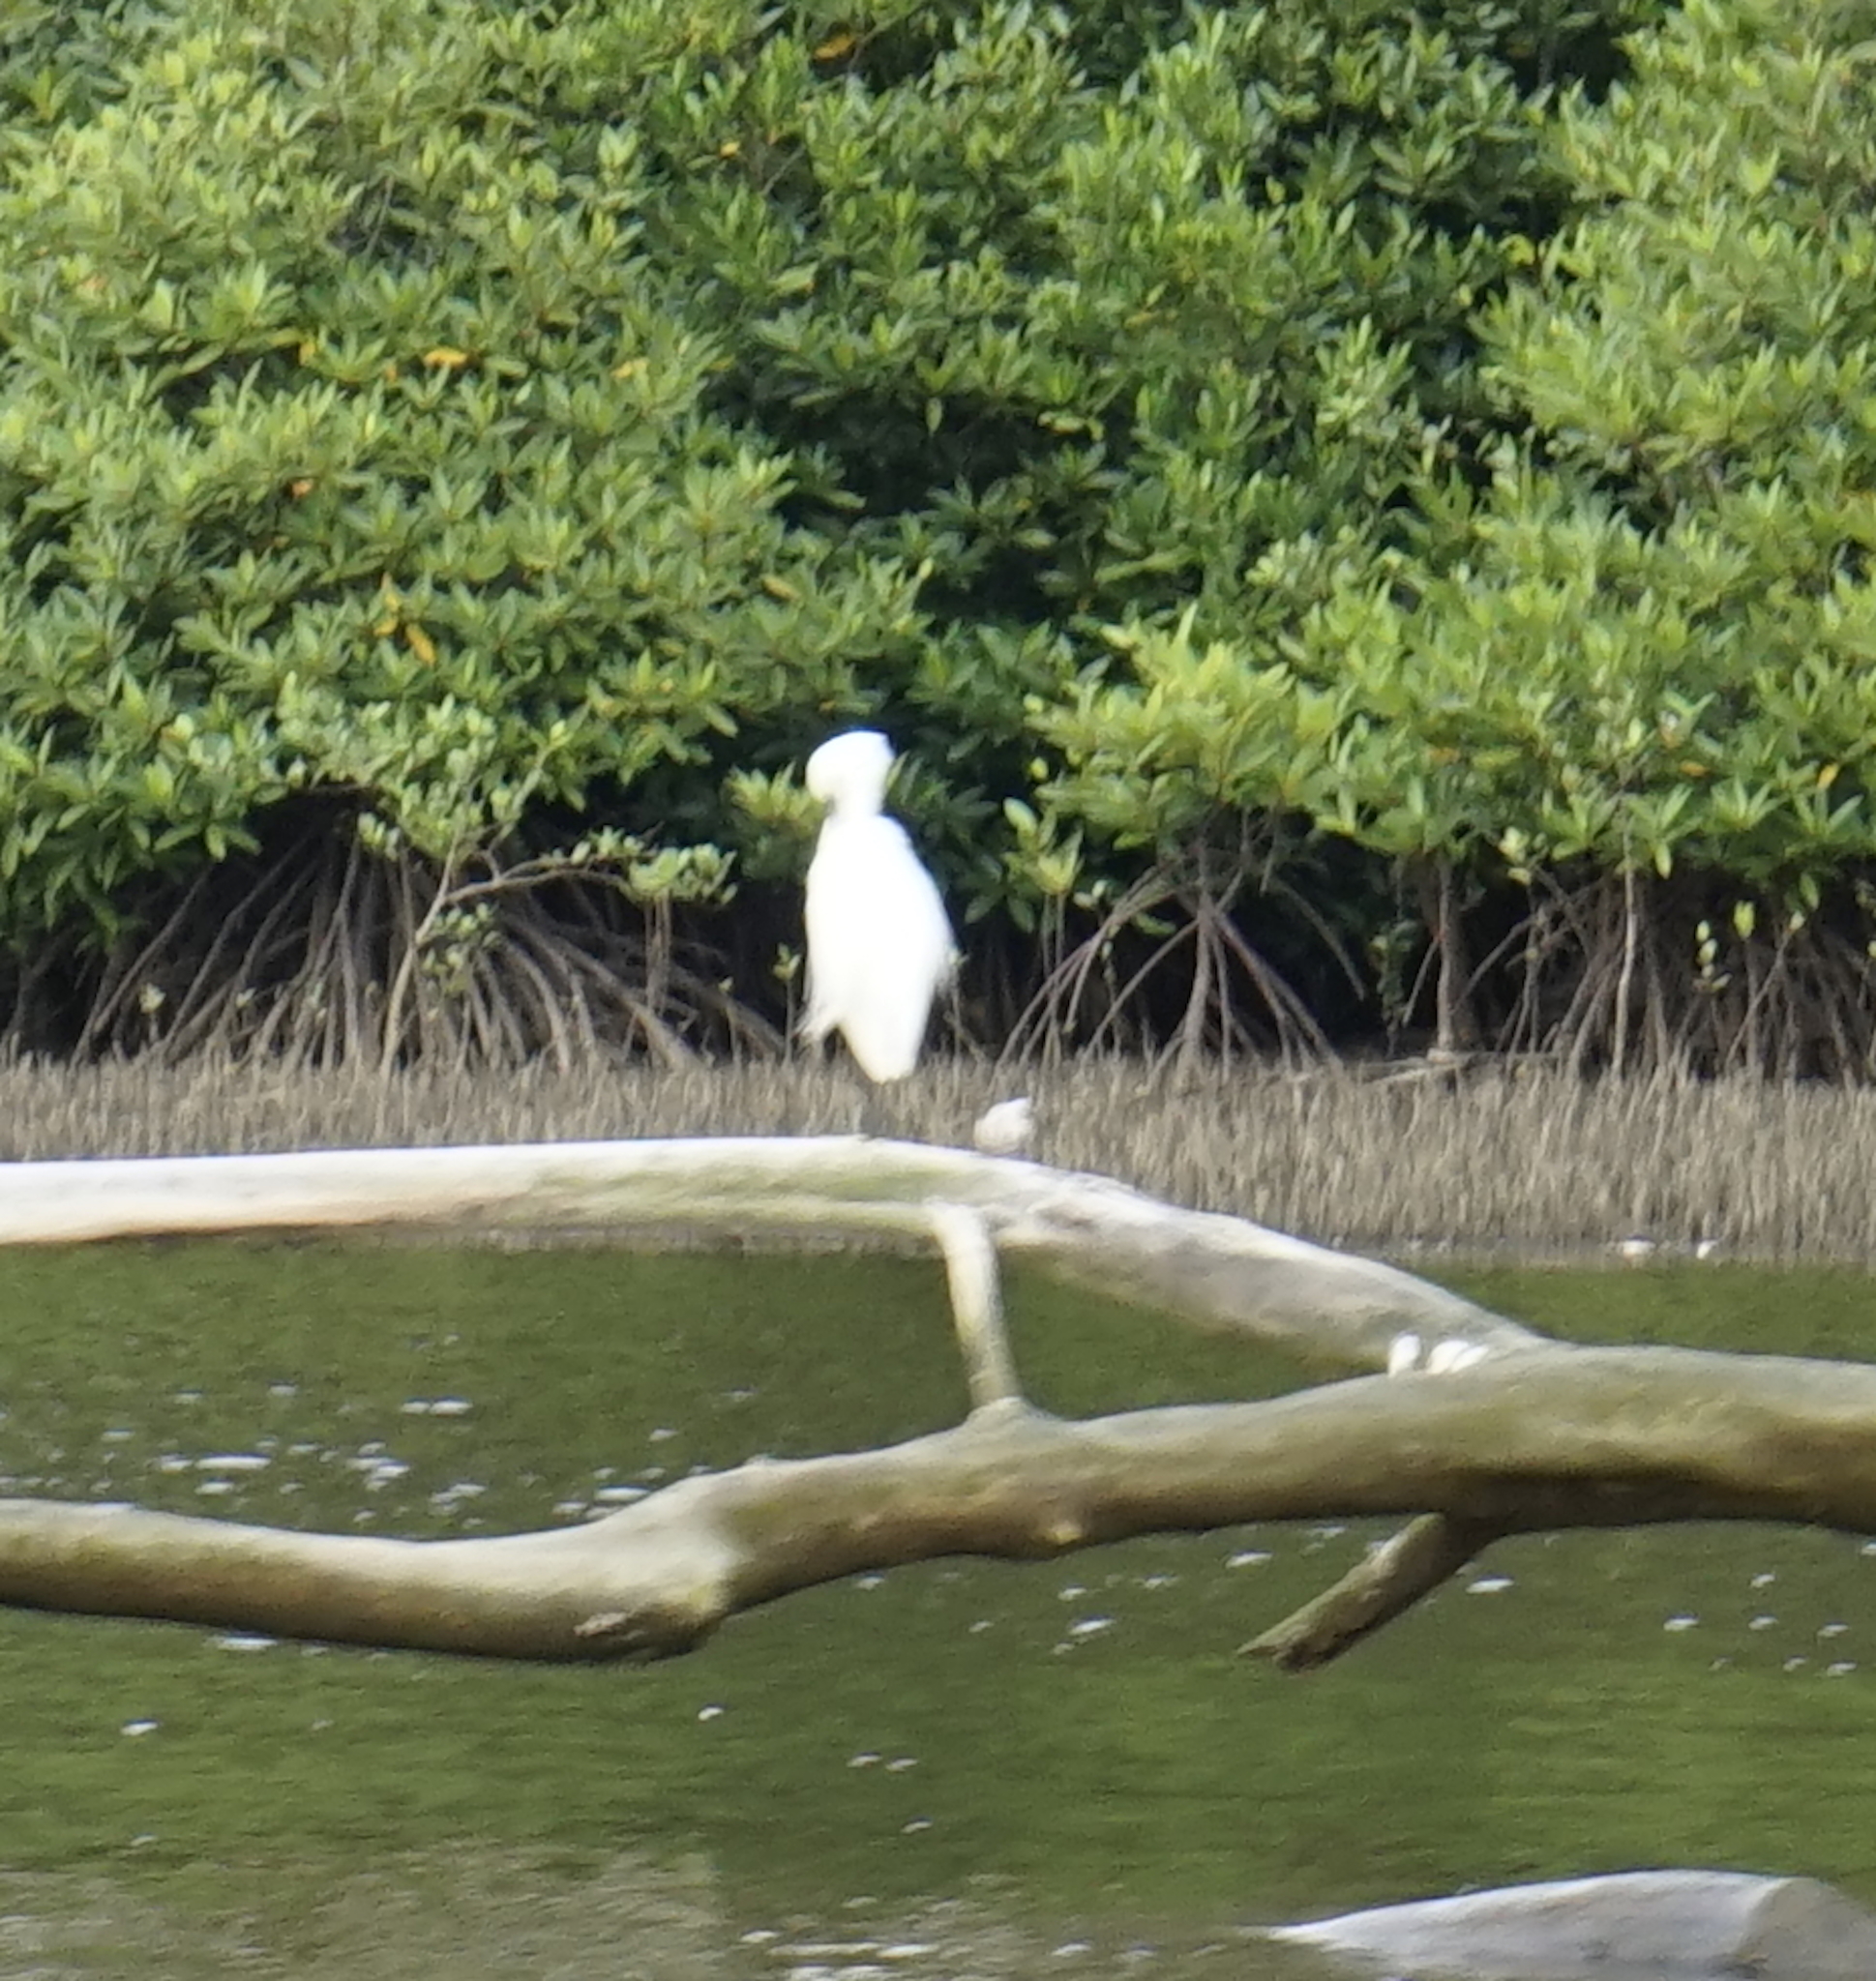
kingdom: Animalia
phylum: Chordata
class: Aves
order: Pelecaniformes
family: Ardeidae
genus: Egretta
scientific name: Egretta garzetta
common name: Little egret
